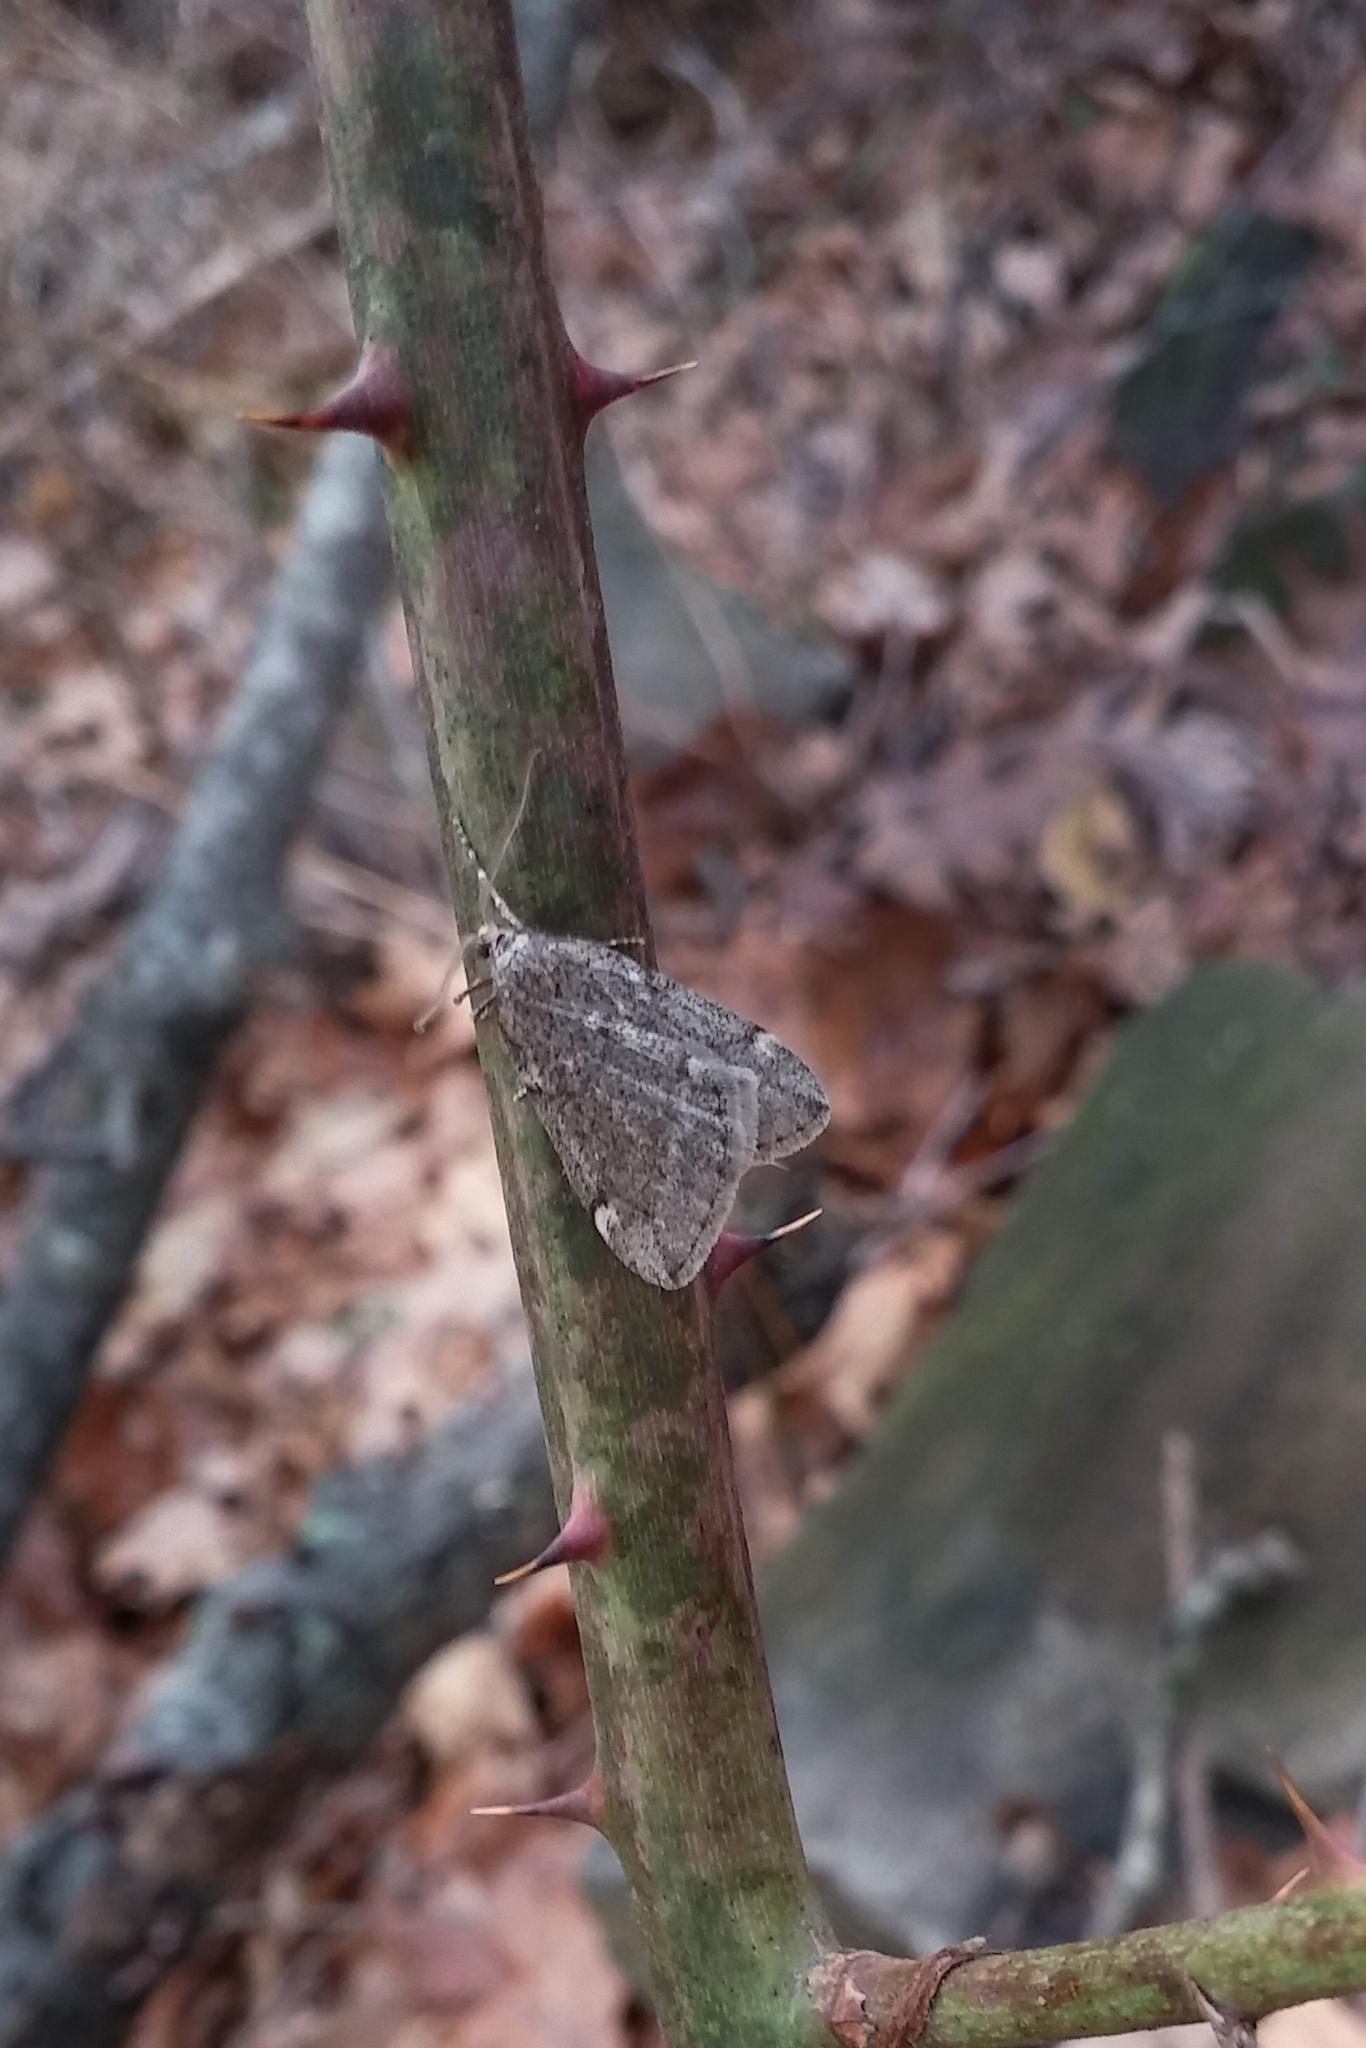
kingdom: Animalia
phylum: Arthropoda
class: Insecta
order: Lepidoptera
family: Geometridae
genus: Alsophila
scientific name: Alsophila pometaria
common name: Fall cankerworm
